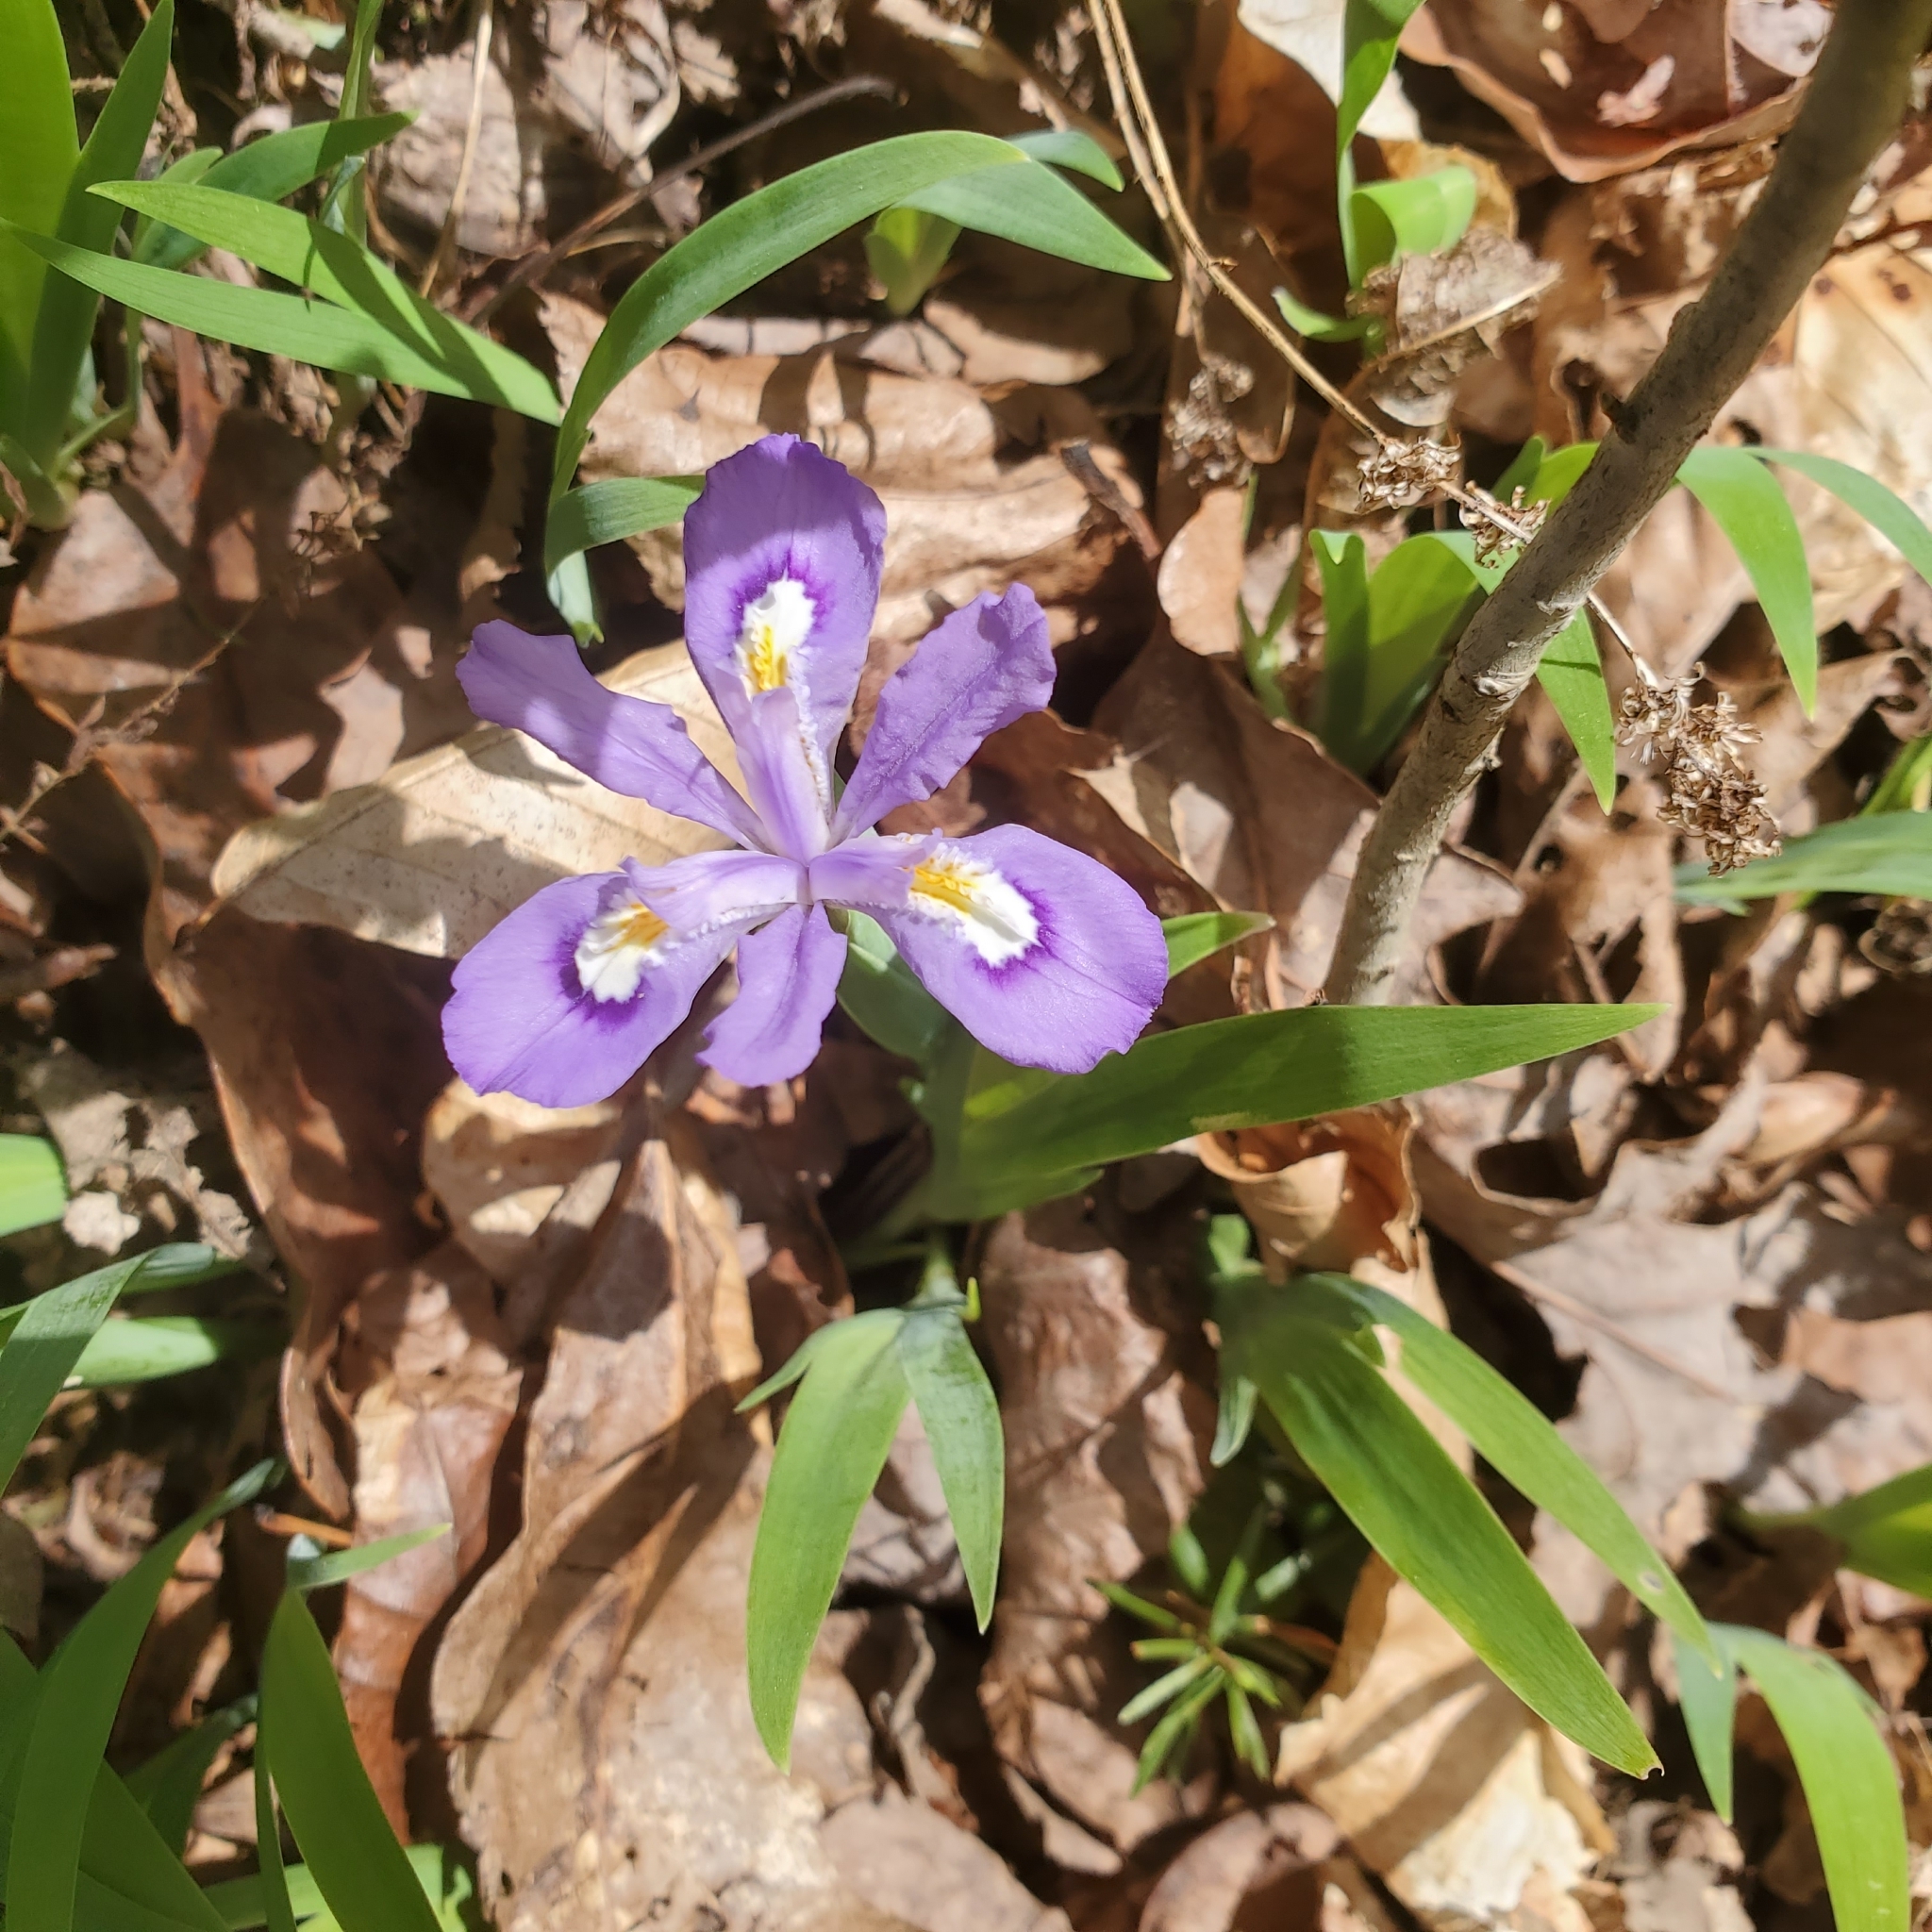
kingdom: Plantae
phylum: Tracheophyta
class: Liliopsida
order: Asparagales
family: Iridaceae
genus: Iris
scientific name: Iris cristata
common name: Crested iris
